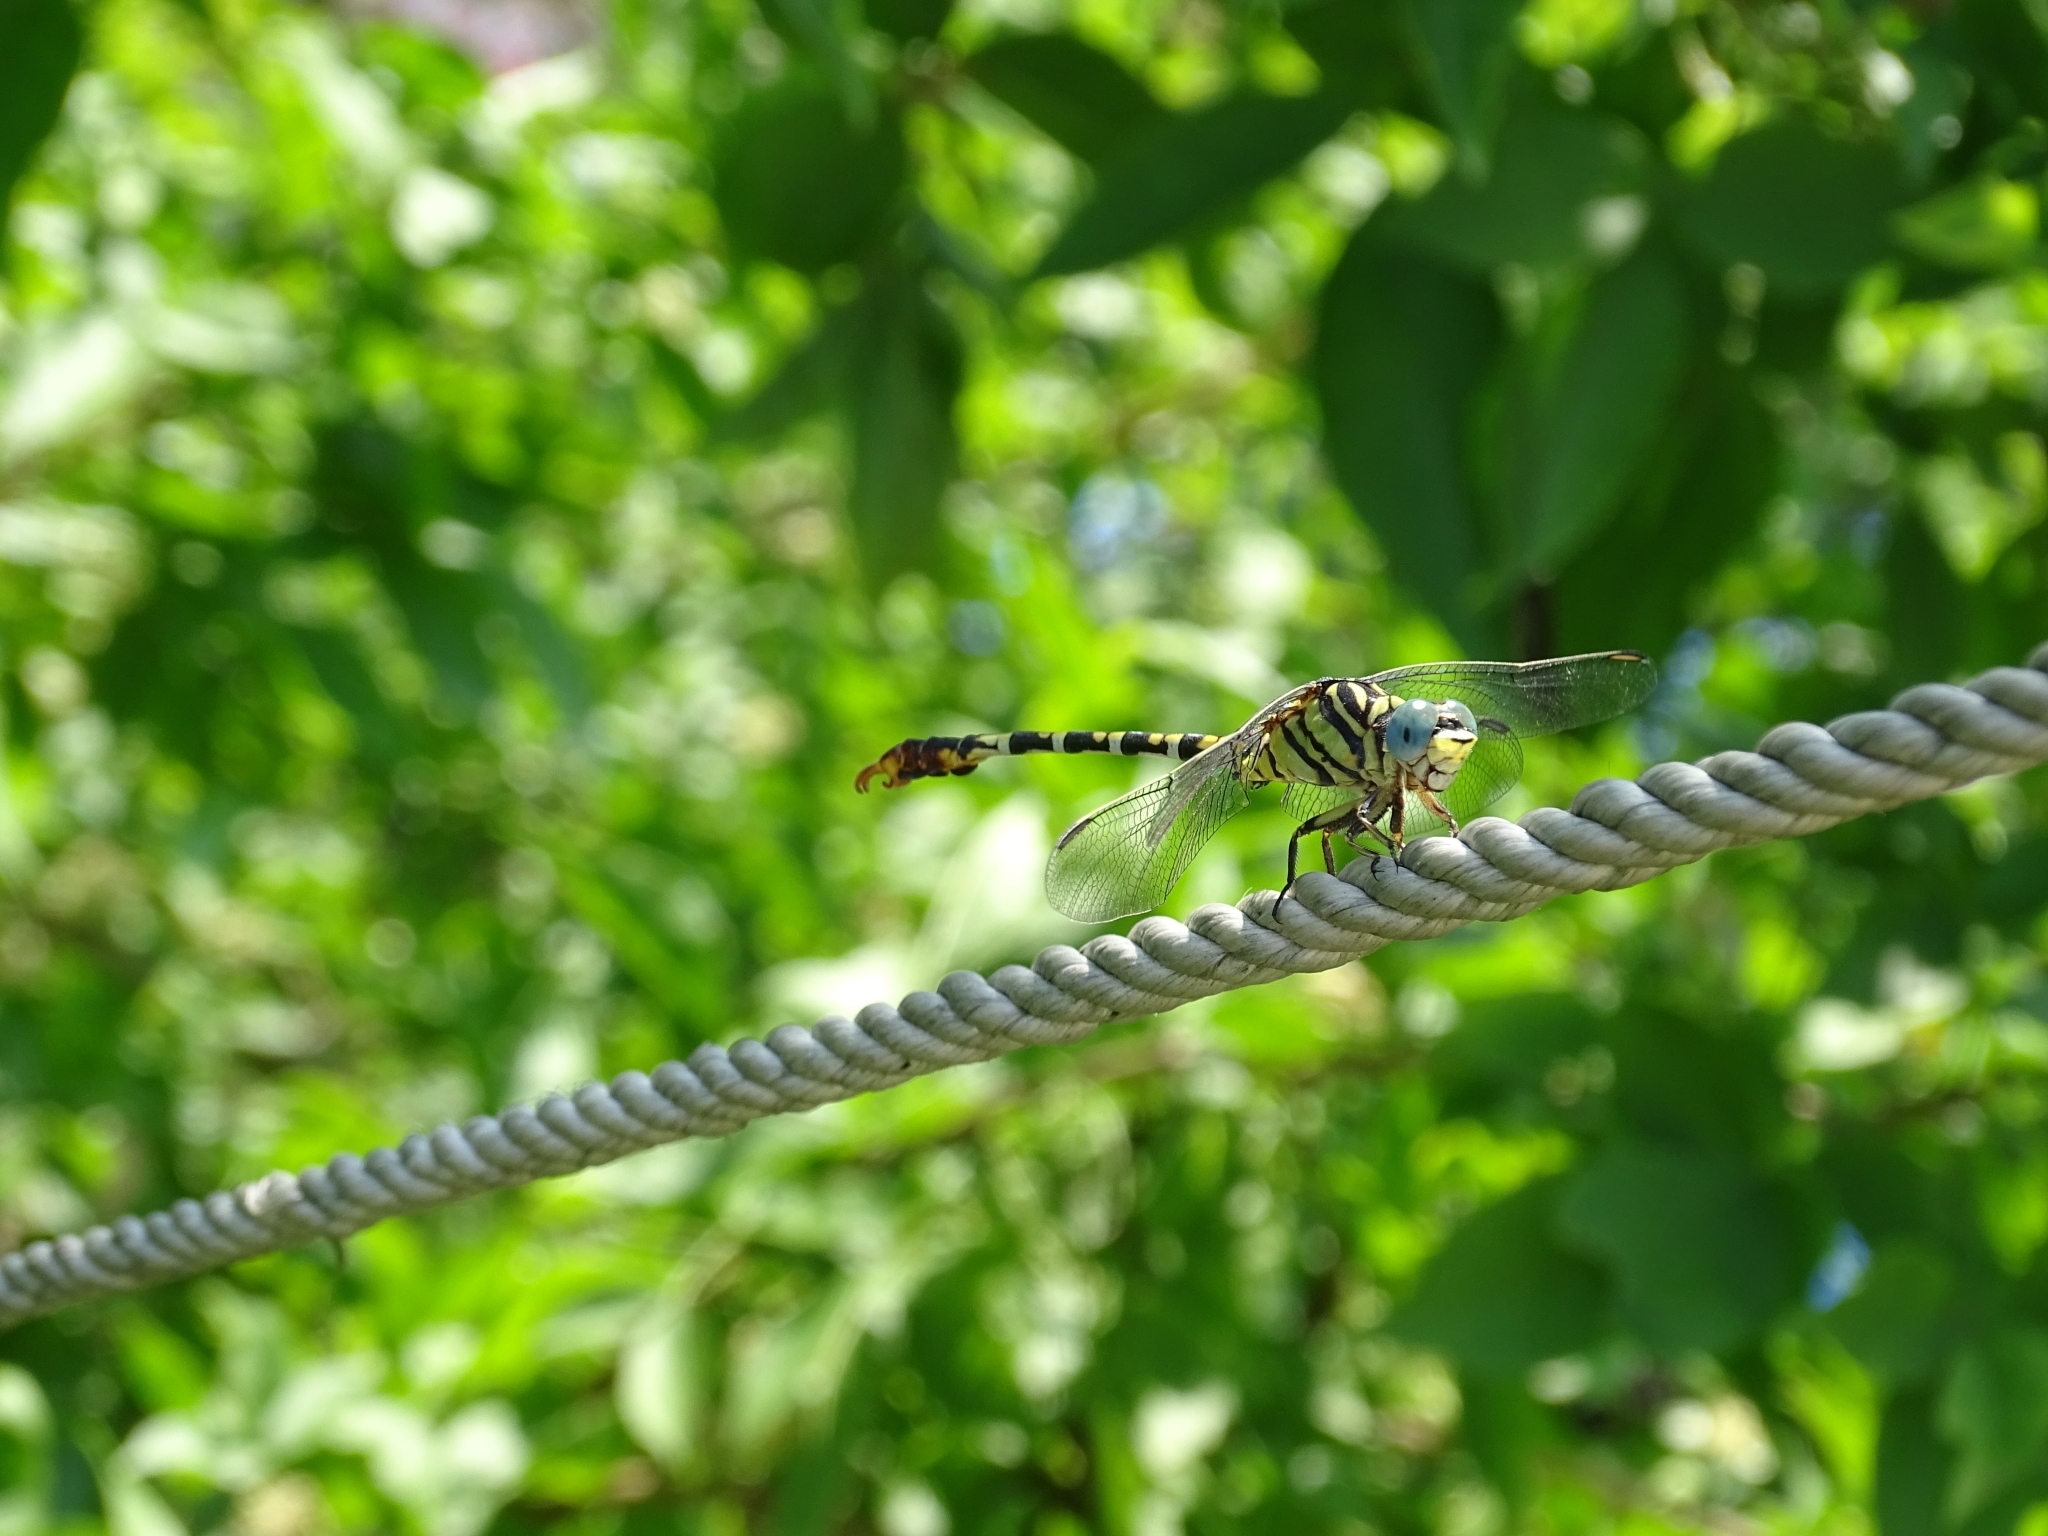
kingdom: Animalia
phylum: Arthropoda
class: Insecta
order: Odonata
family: Gomphidae
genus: Paragomphus
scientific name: Paragomphus lineatus
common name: Lined hooktail
